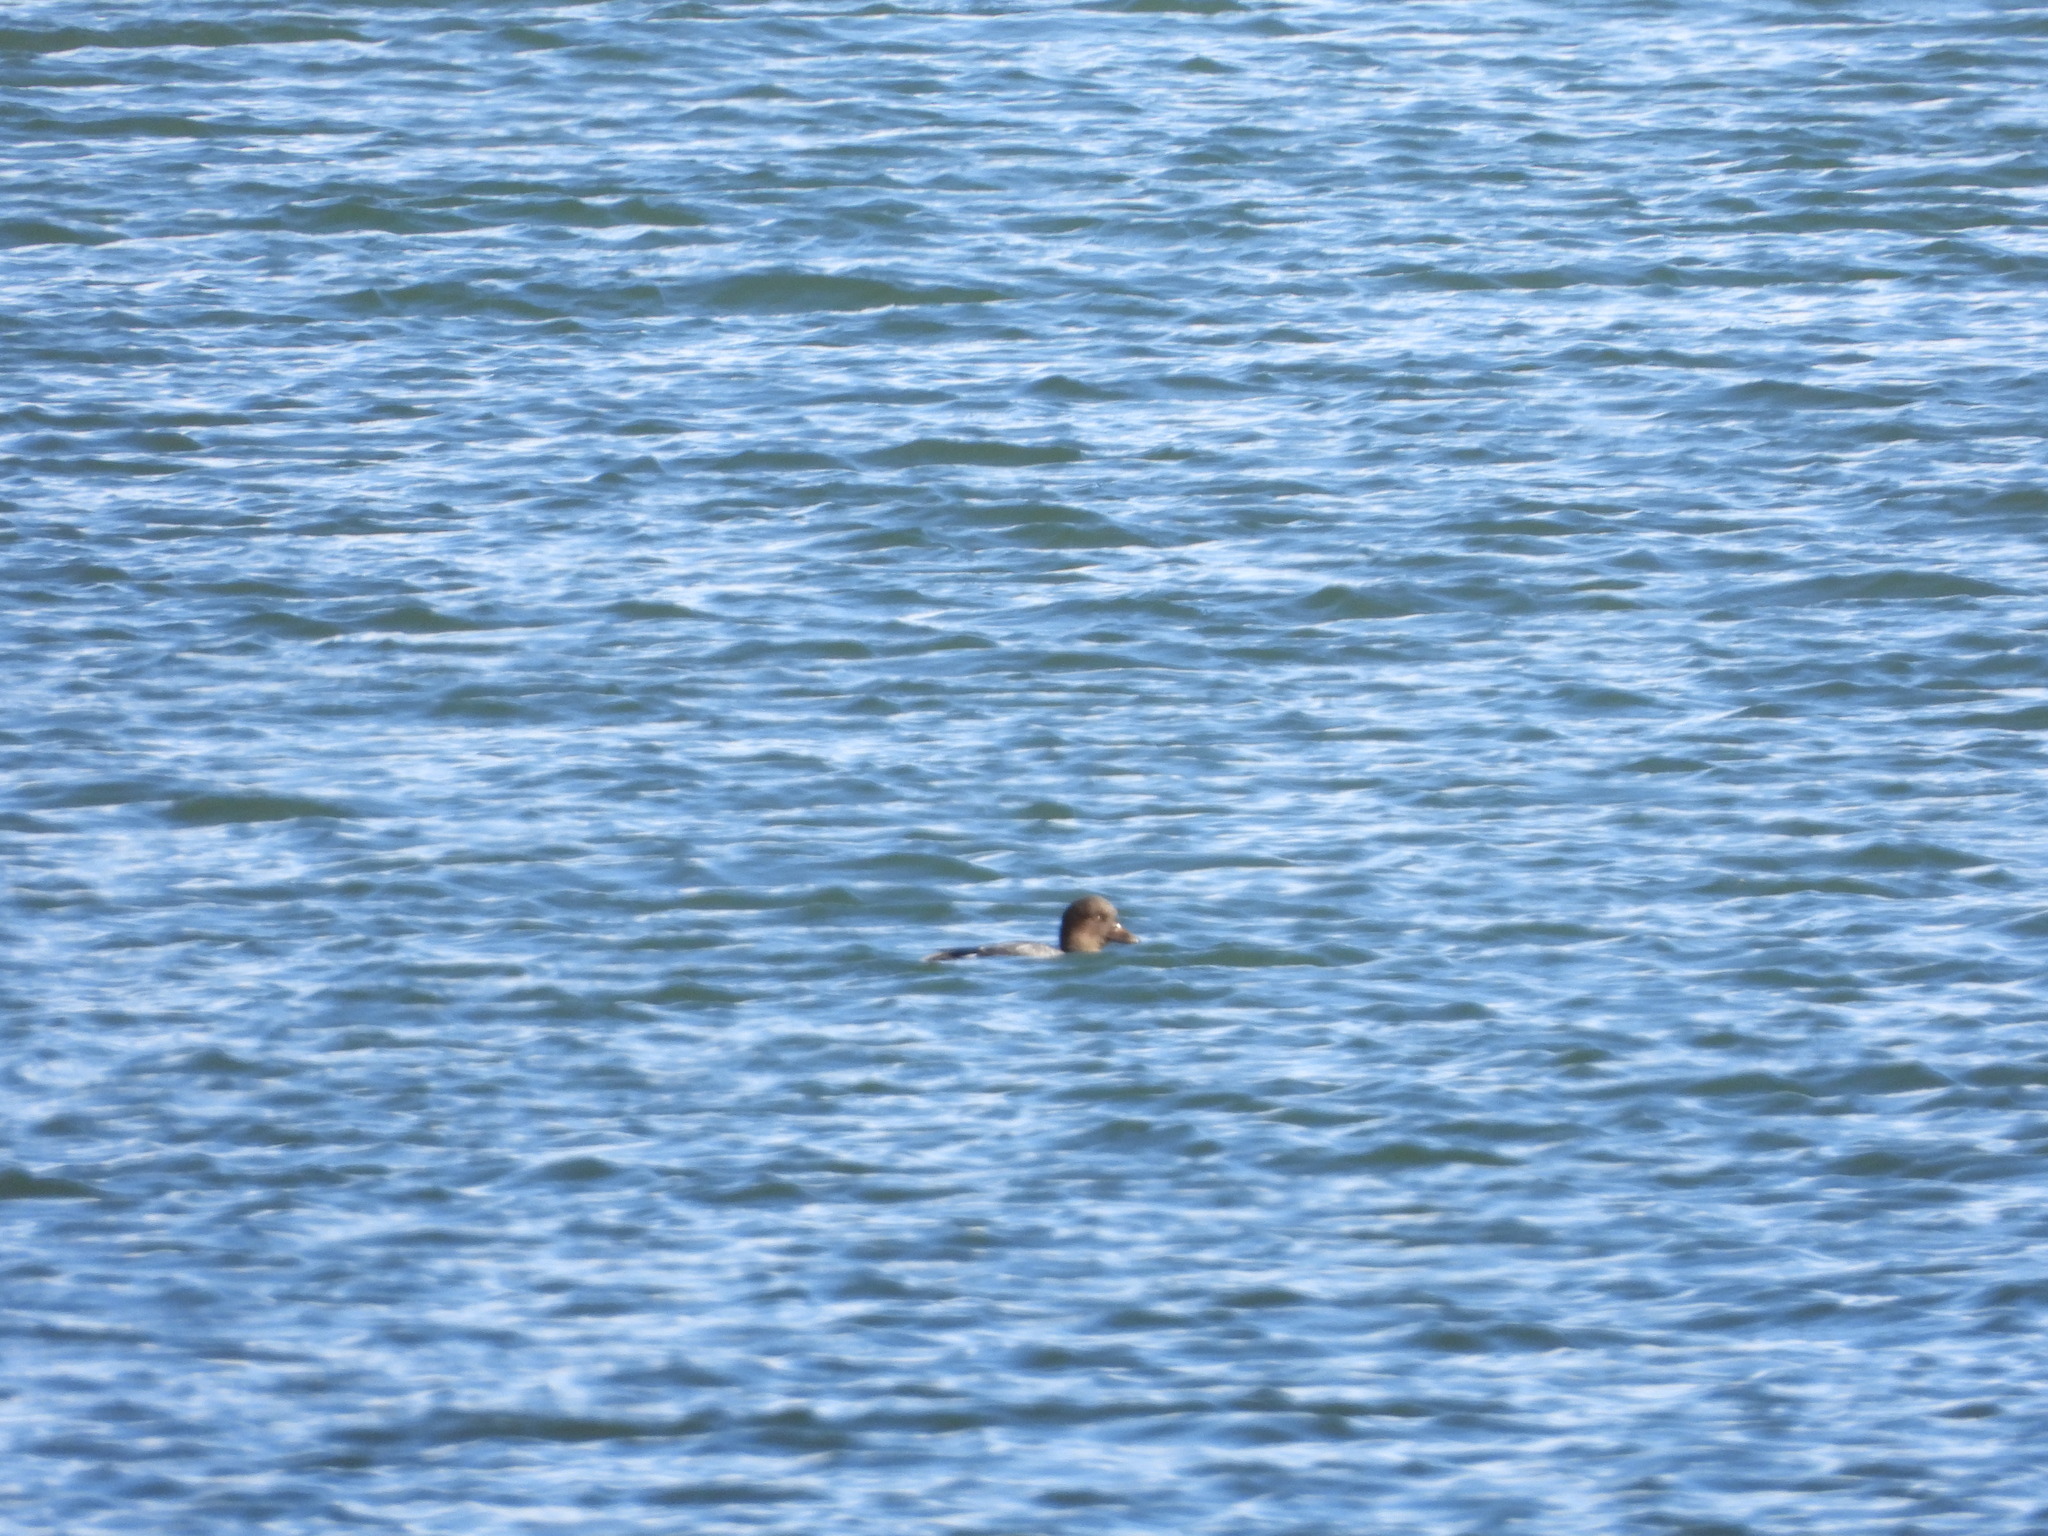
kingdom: Animalia
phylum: Chordata
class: Aves
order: Anseriformes
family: Anatidae
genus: Bucephala
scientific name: Bucephala clangula
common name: Common goldeneye
